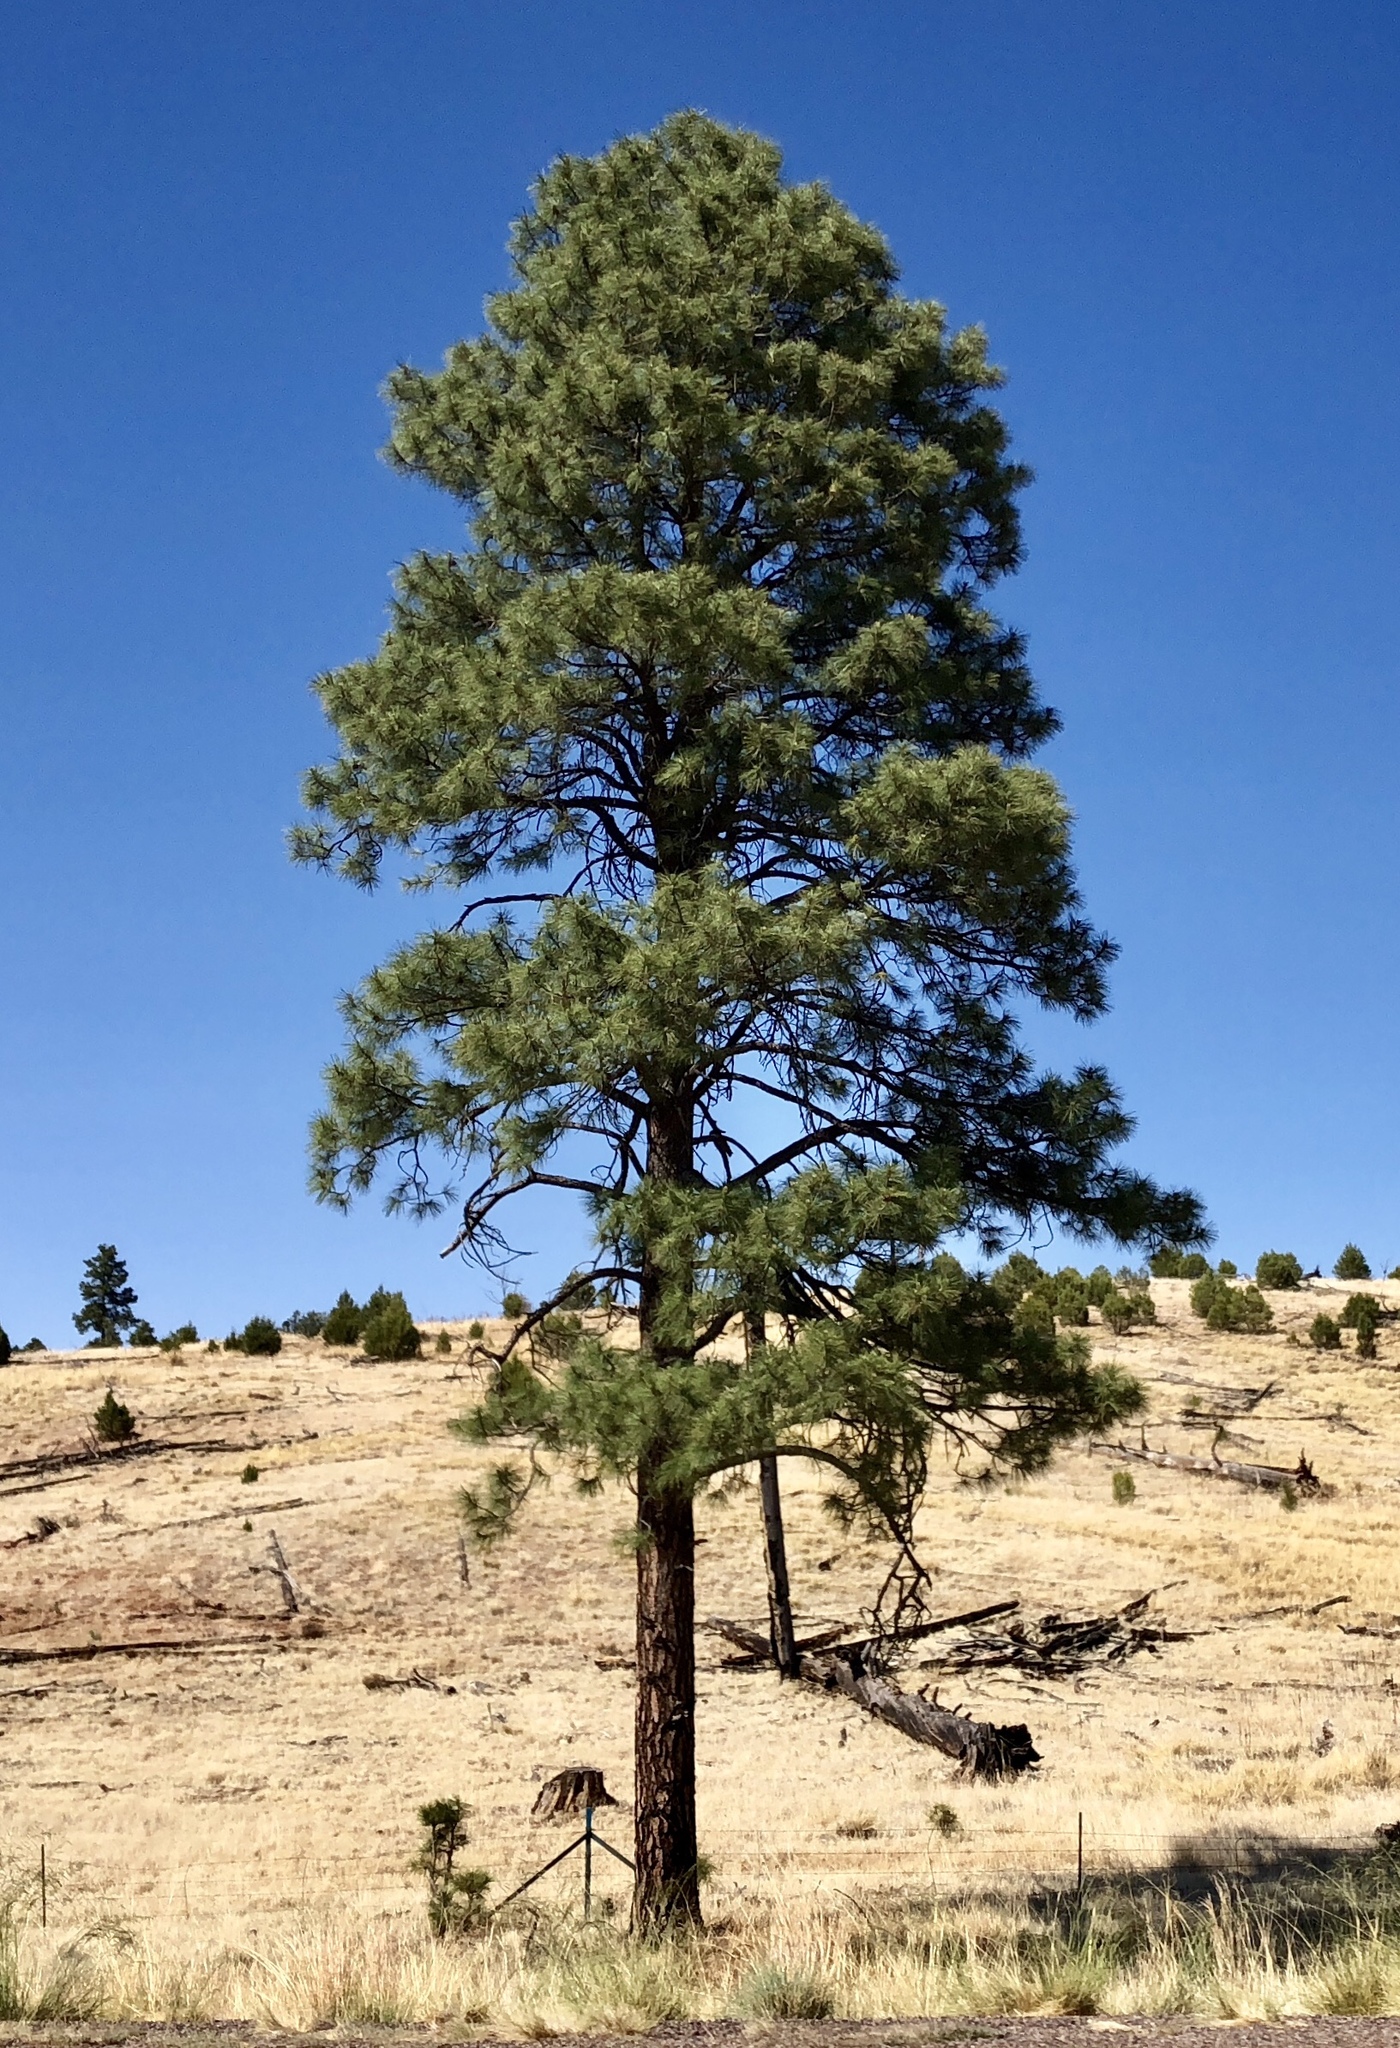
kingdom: Plantae
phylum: Tracheophyta
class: Pinopsida
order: Pinales
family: Pinaceae
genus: Pinus
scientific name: Pinus ponderosa
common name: Western yellow-pine
